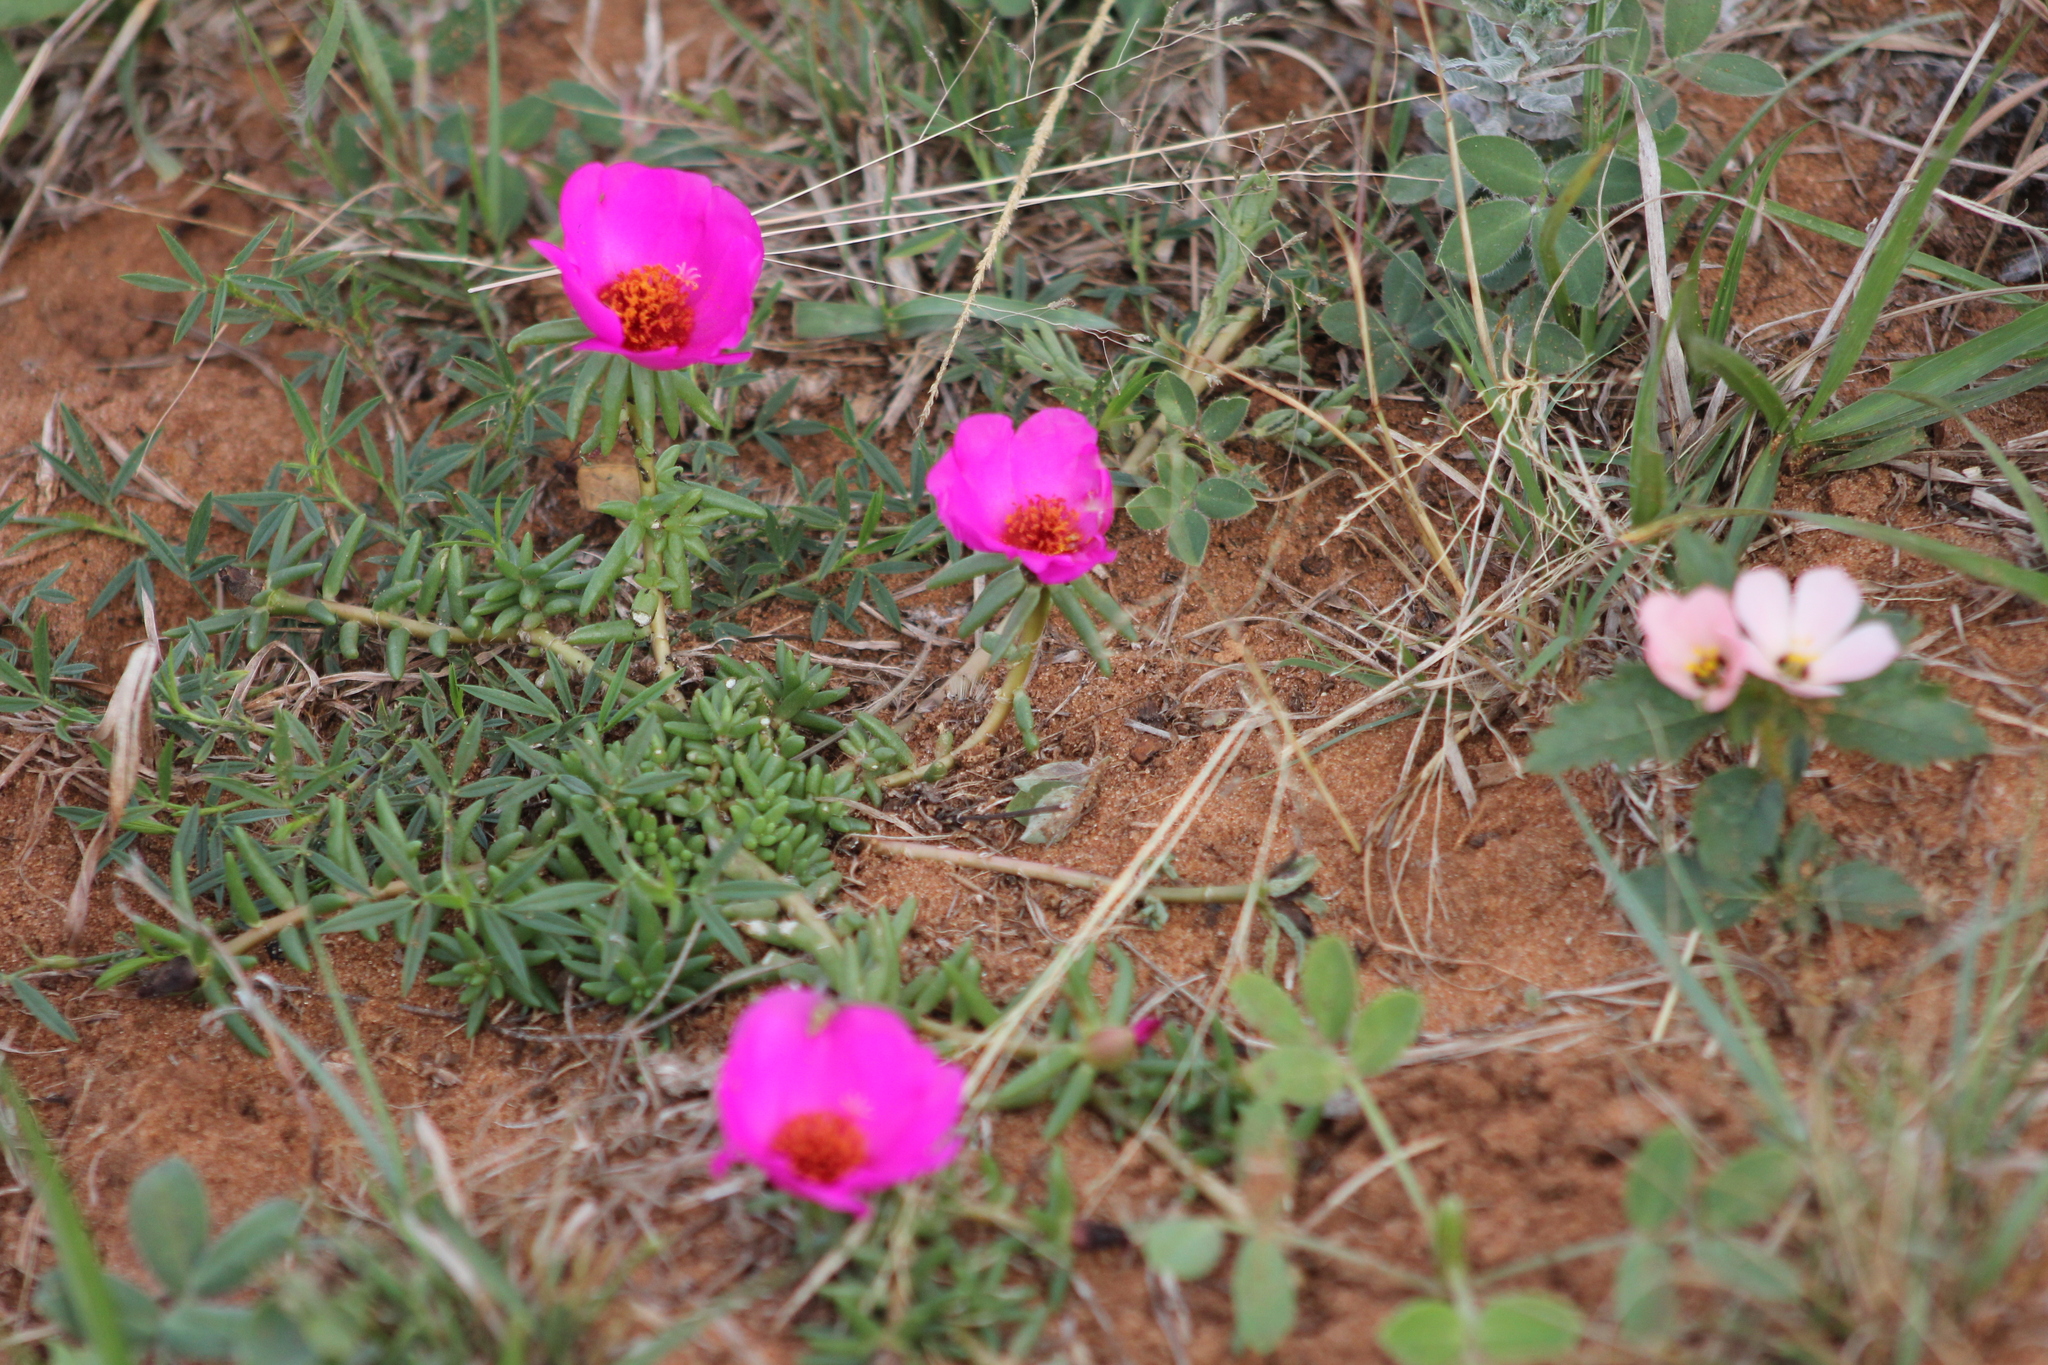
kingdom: Plantae
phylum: Tracheophyta
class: Magnoliopsida
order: Caryophyllales
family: Portulacaceae
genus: Portulaca
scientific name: Portulaca grandiflora
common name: Moss-rose
